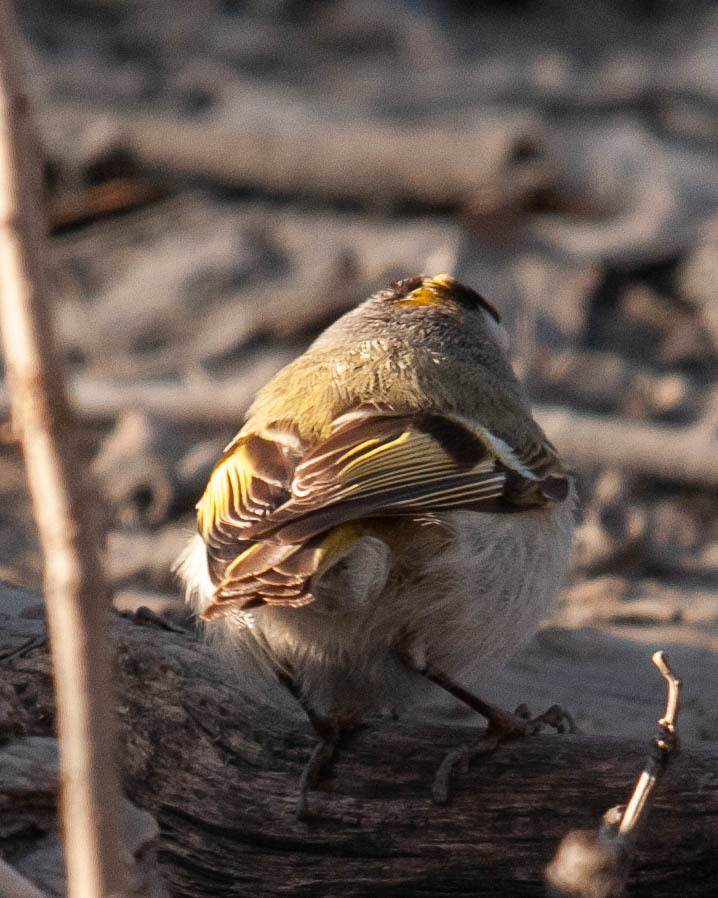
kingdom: Animalia
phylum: Chordata
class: Aves
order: Passeriformes
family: Regulidae
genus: Regulus
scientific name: Regulus satrapa
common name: Golden-crowned kinglet
